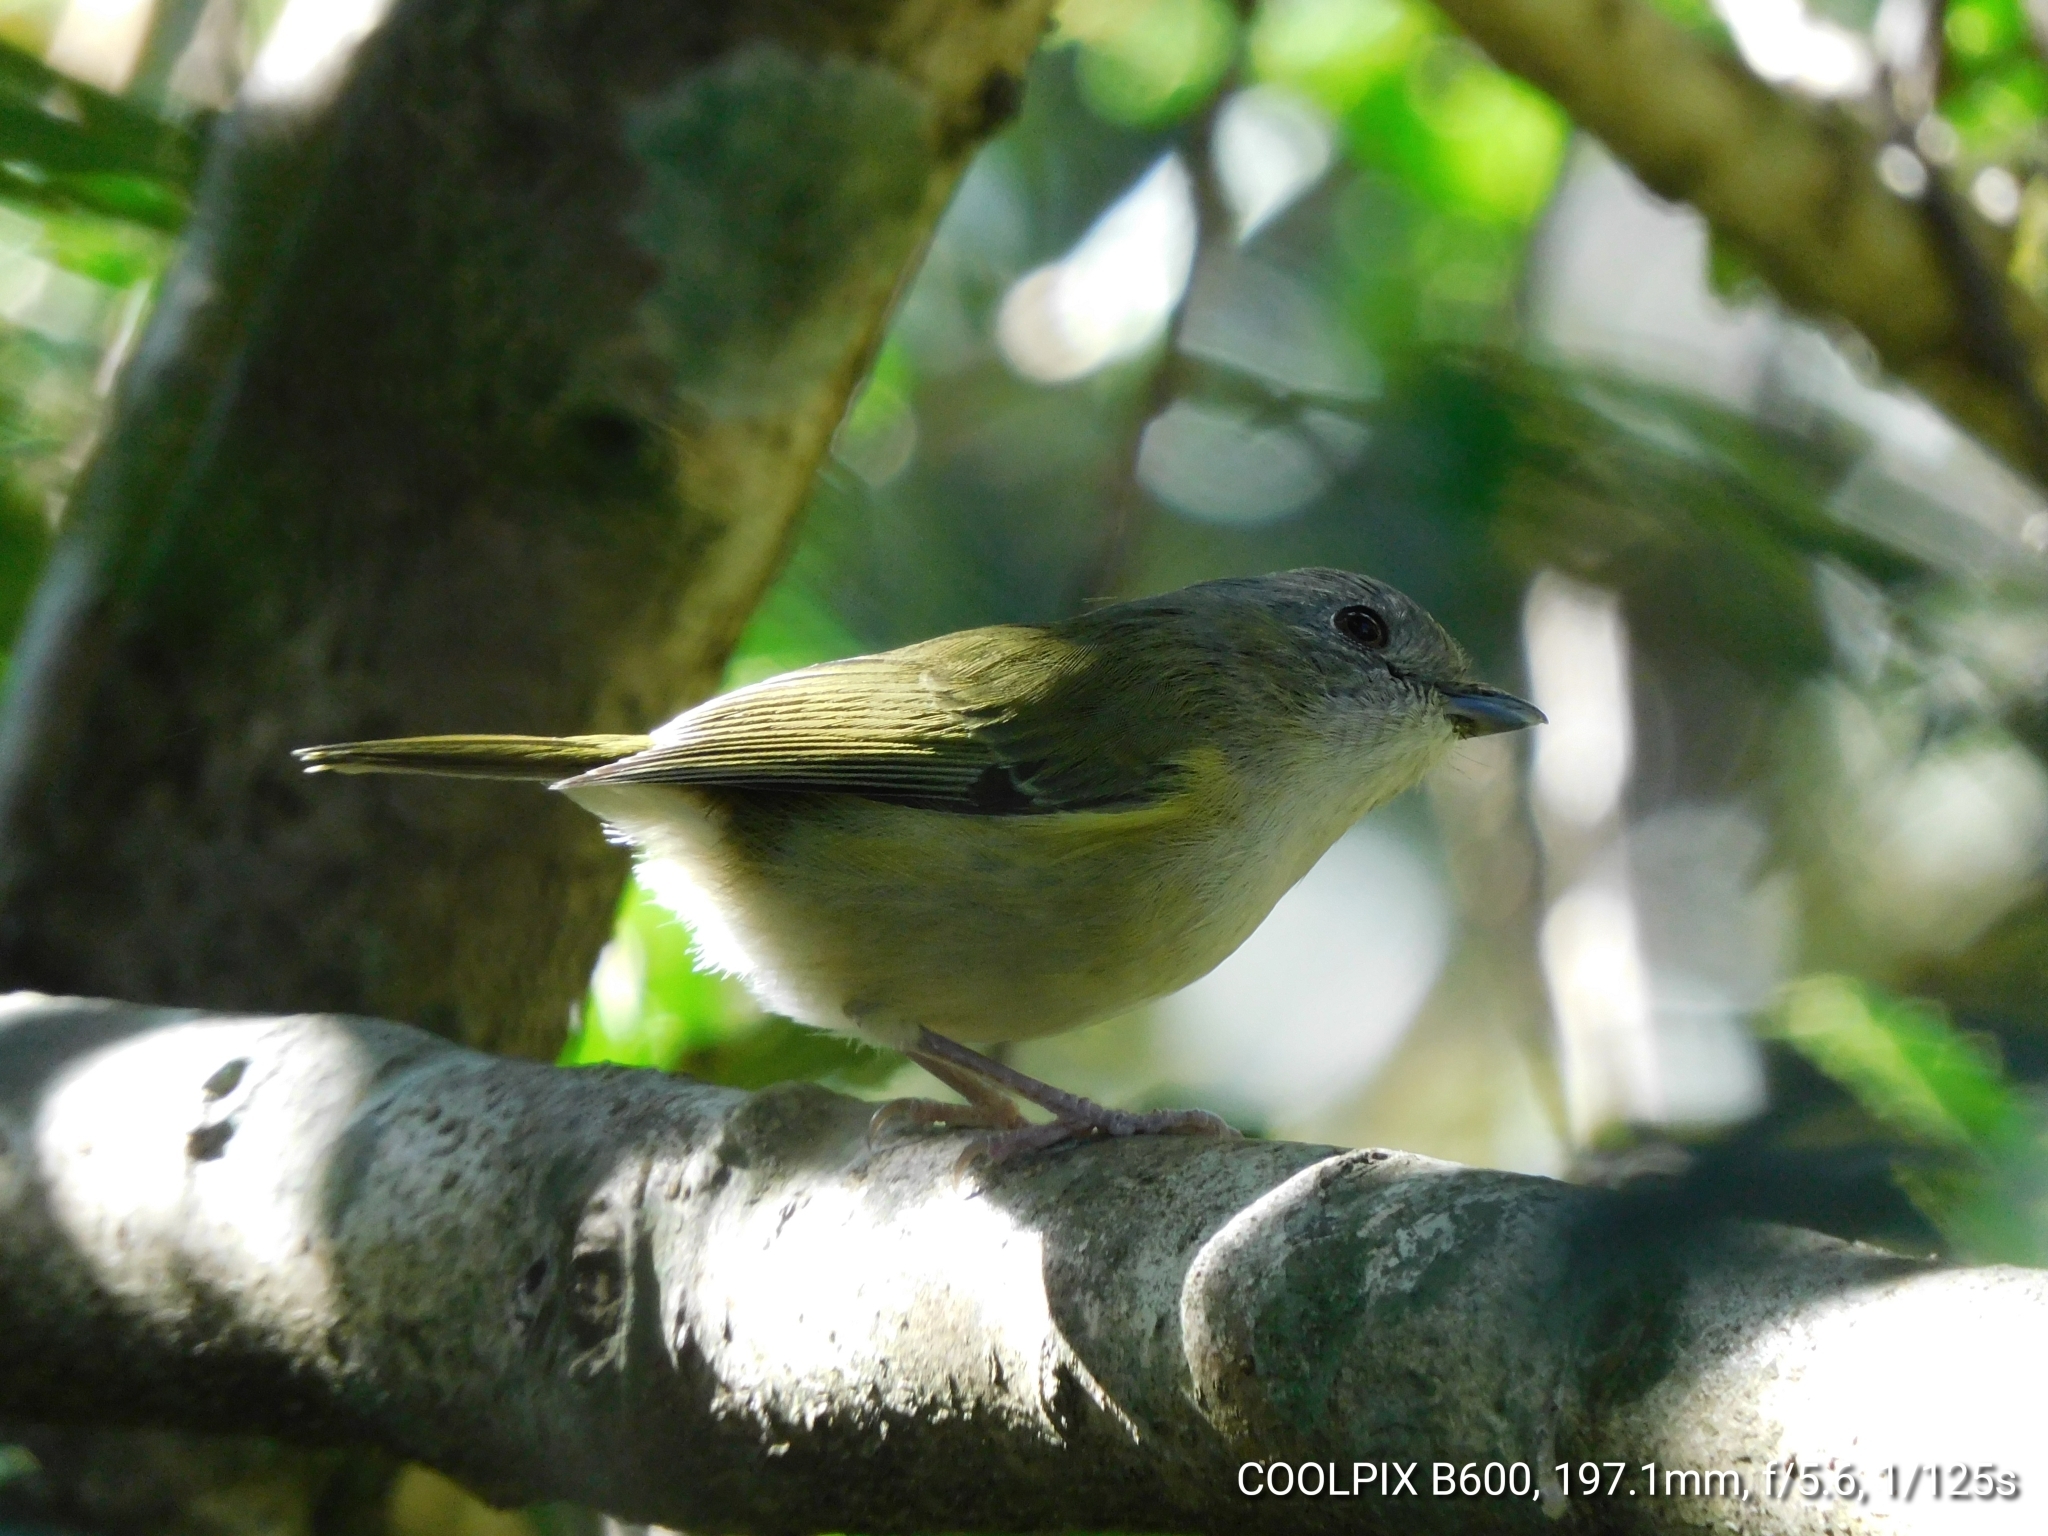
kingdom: Animalia
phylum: Chordata
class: Aves
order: Passeriformes
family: Vireonidae
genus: Pteruthius
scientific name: Pteruthius xanthochlorus
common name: Green shrike-babbler
